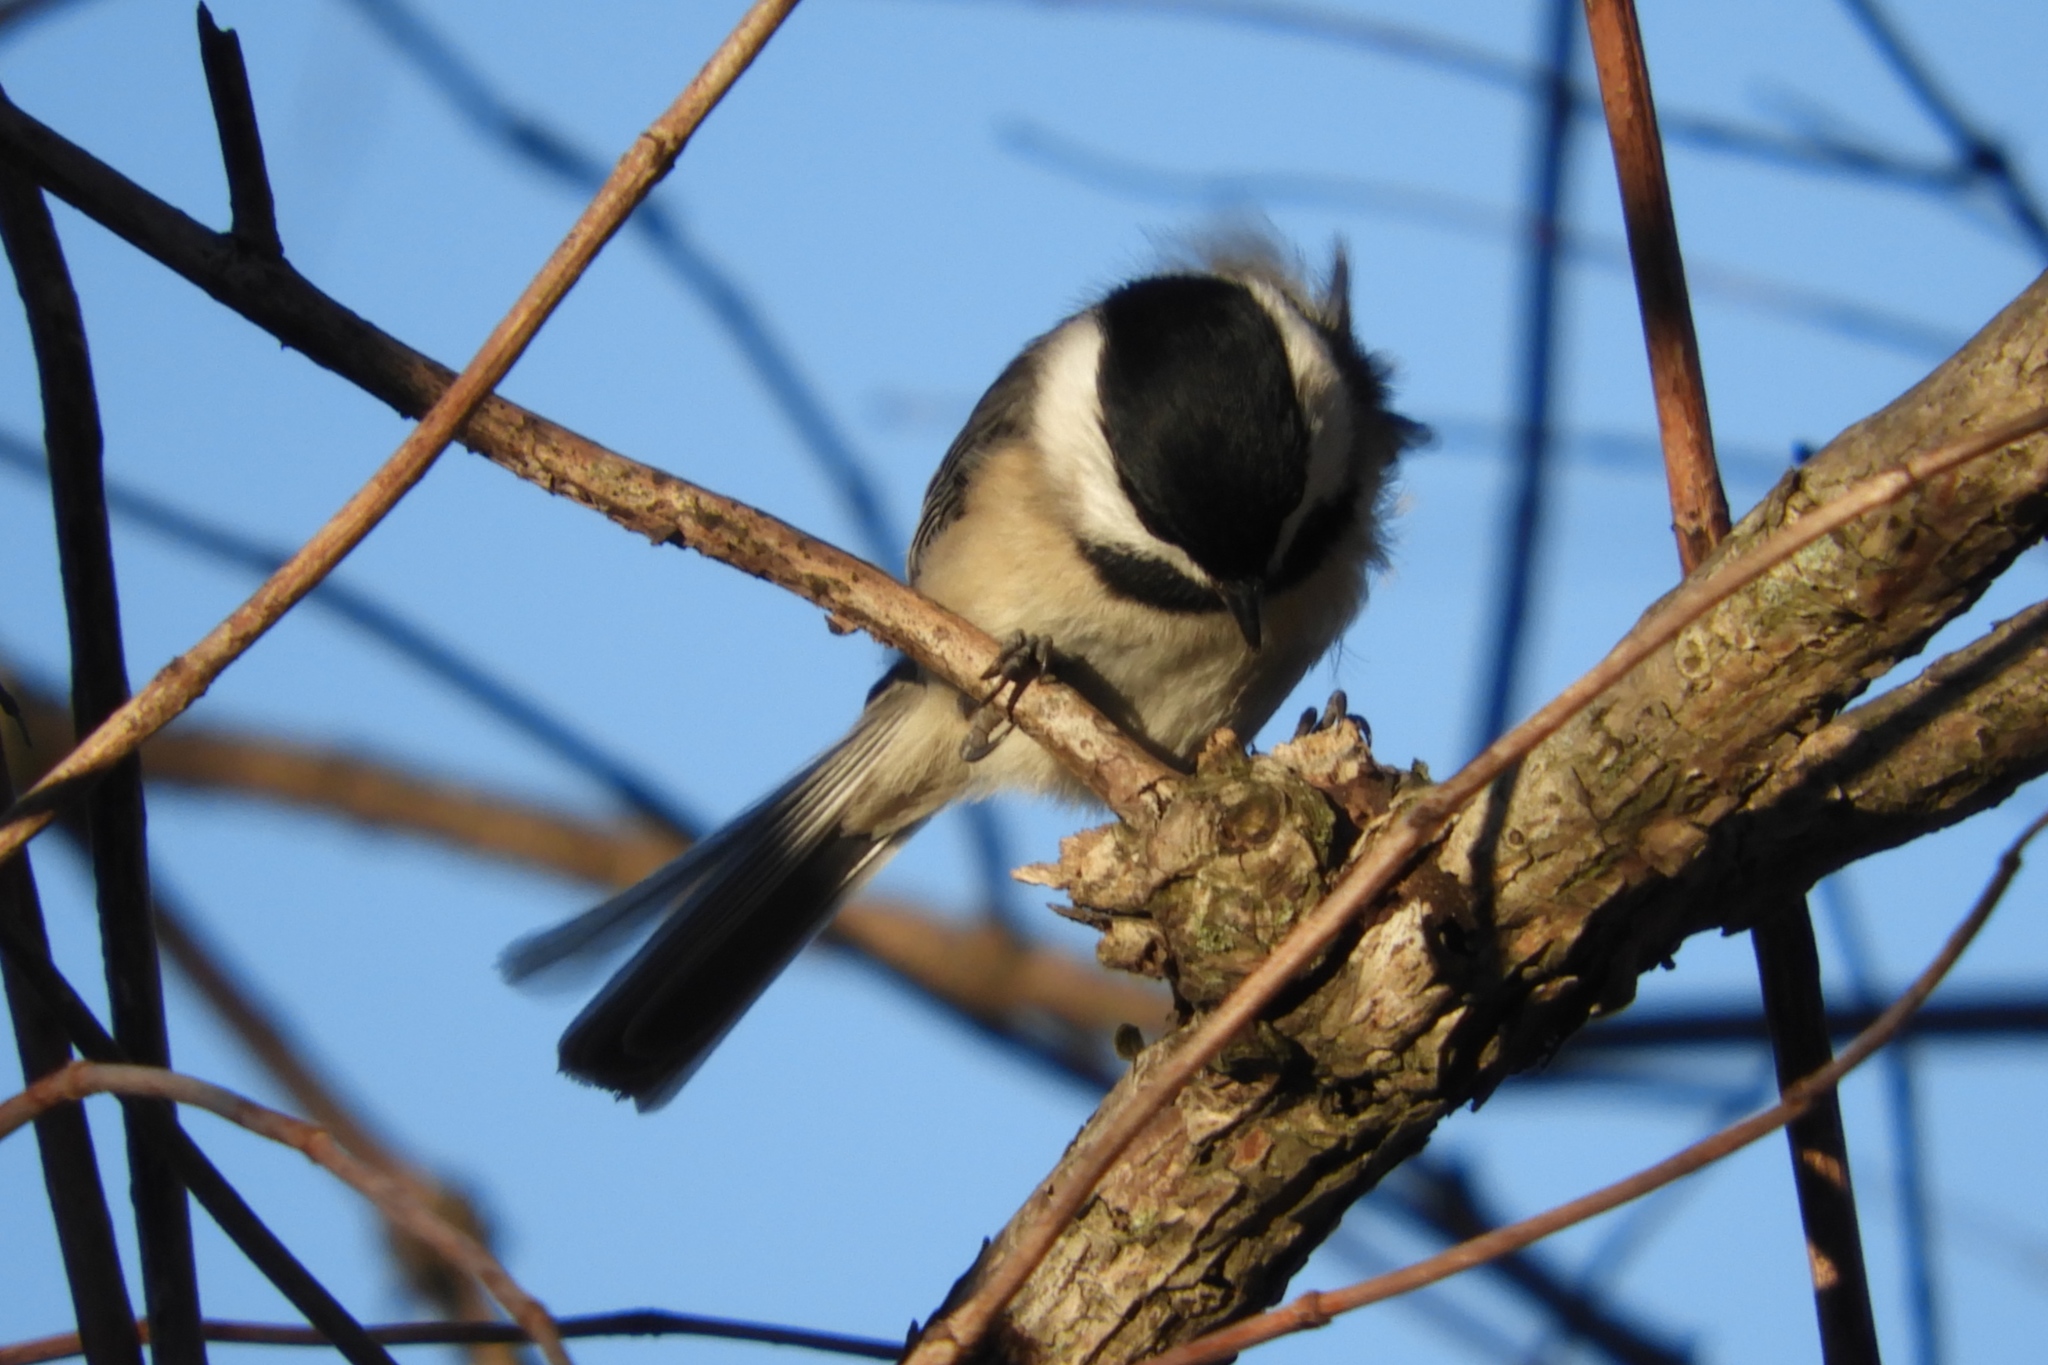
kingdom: Animalia
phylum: Chordata
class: Aves
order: Passeriformes
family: Paridae
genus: Poecile
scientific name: Poecile carolinensis
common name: Carolina chickadee
